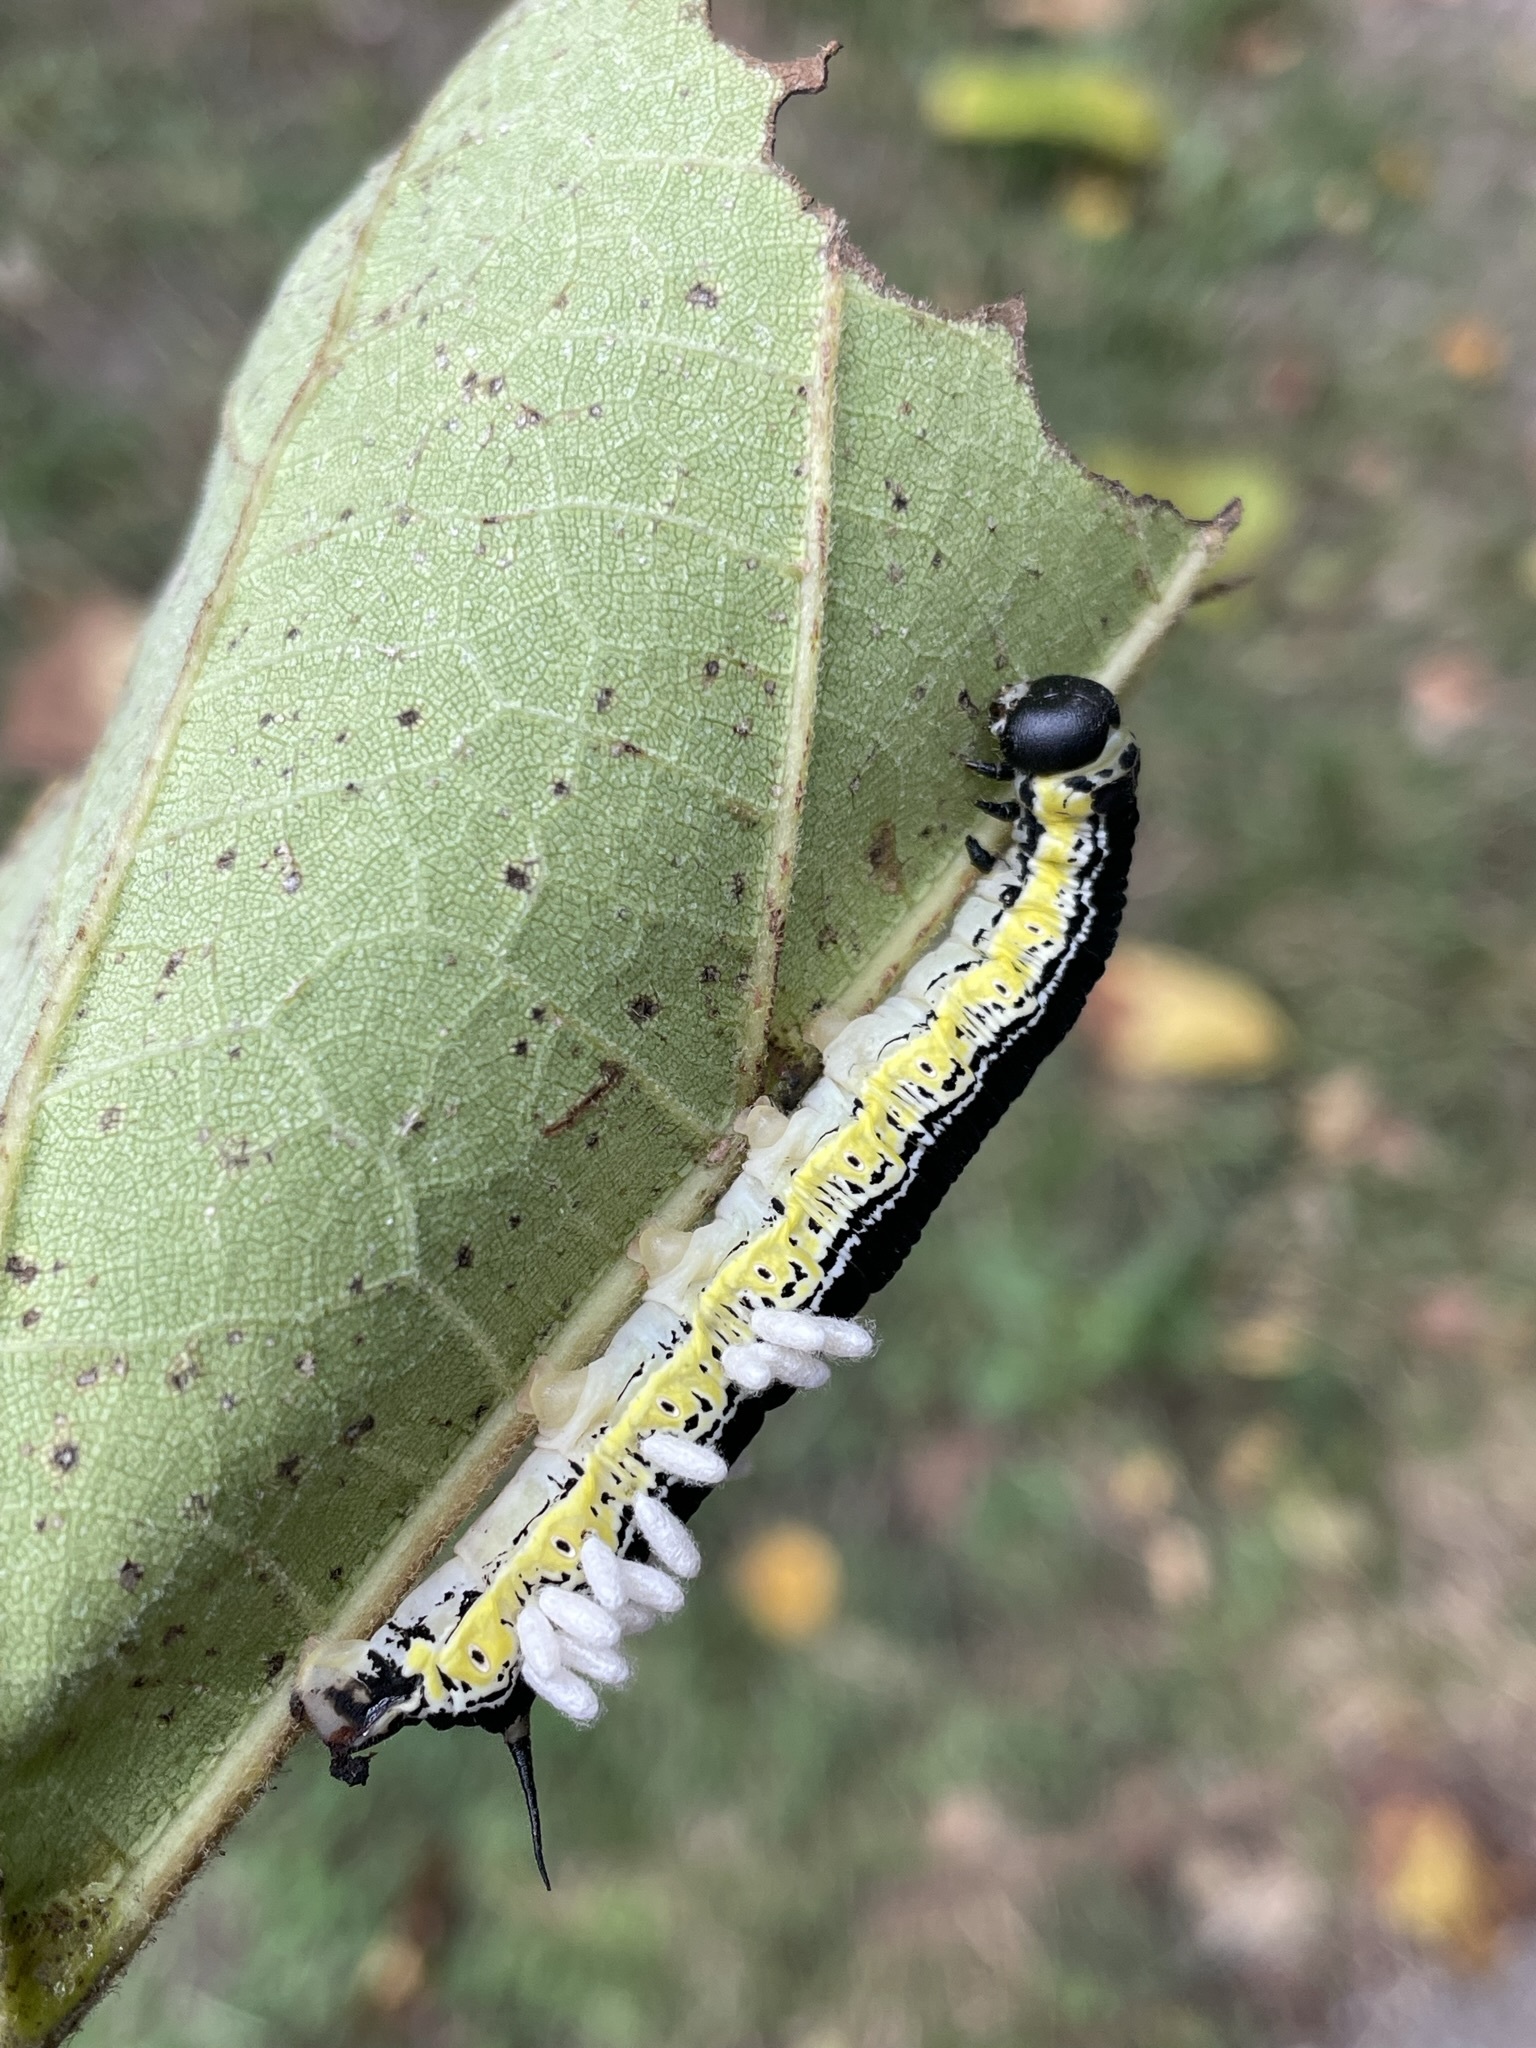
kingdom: Animalia
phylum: Arthropoda
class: Insecta
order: Lepidoptera
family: Sphingidae
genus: Ceratomia
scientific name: Ceratomia catalpae
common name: Catalpa hornworm
